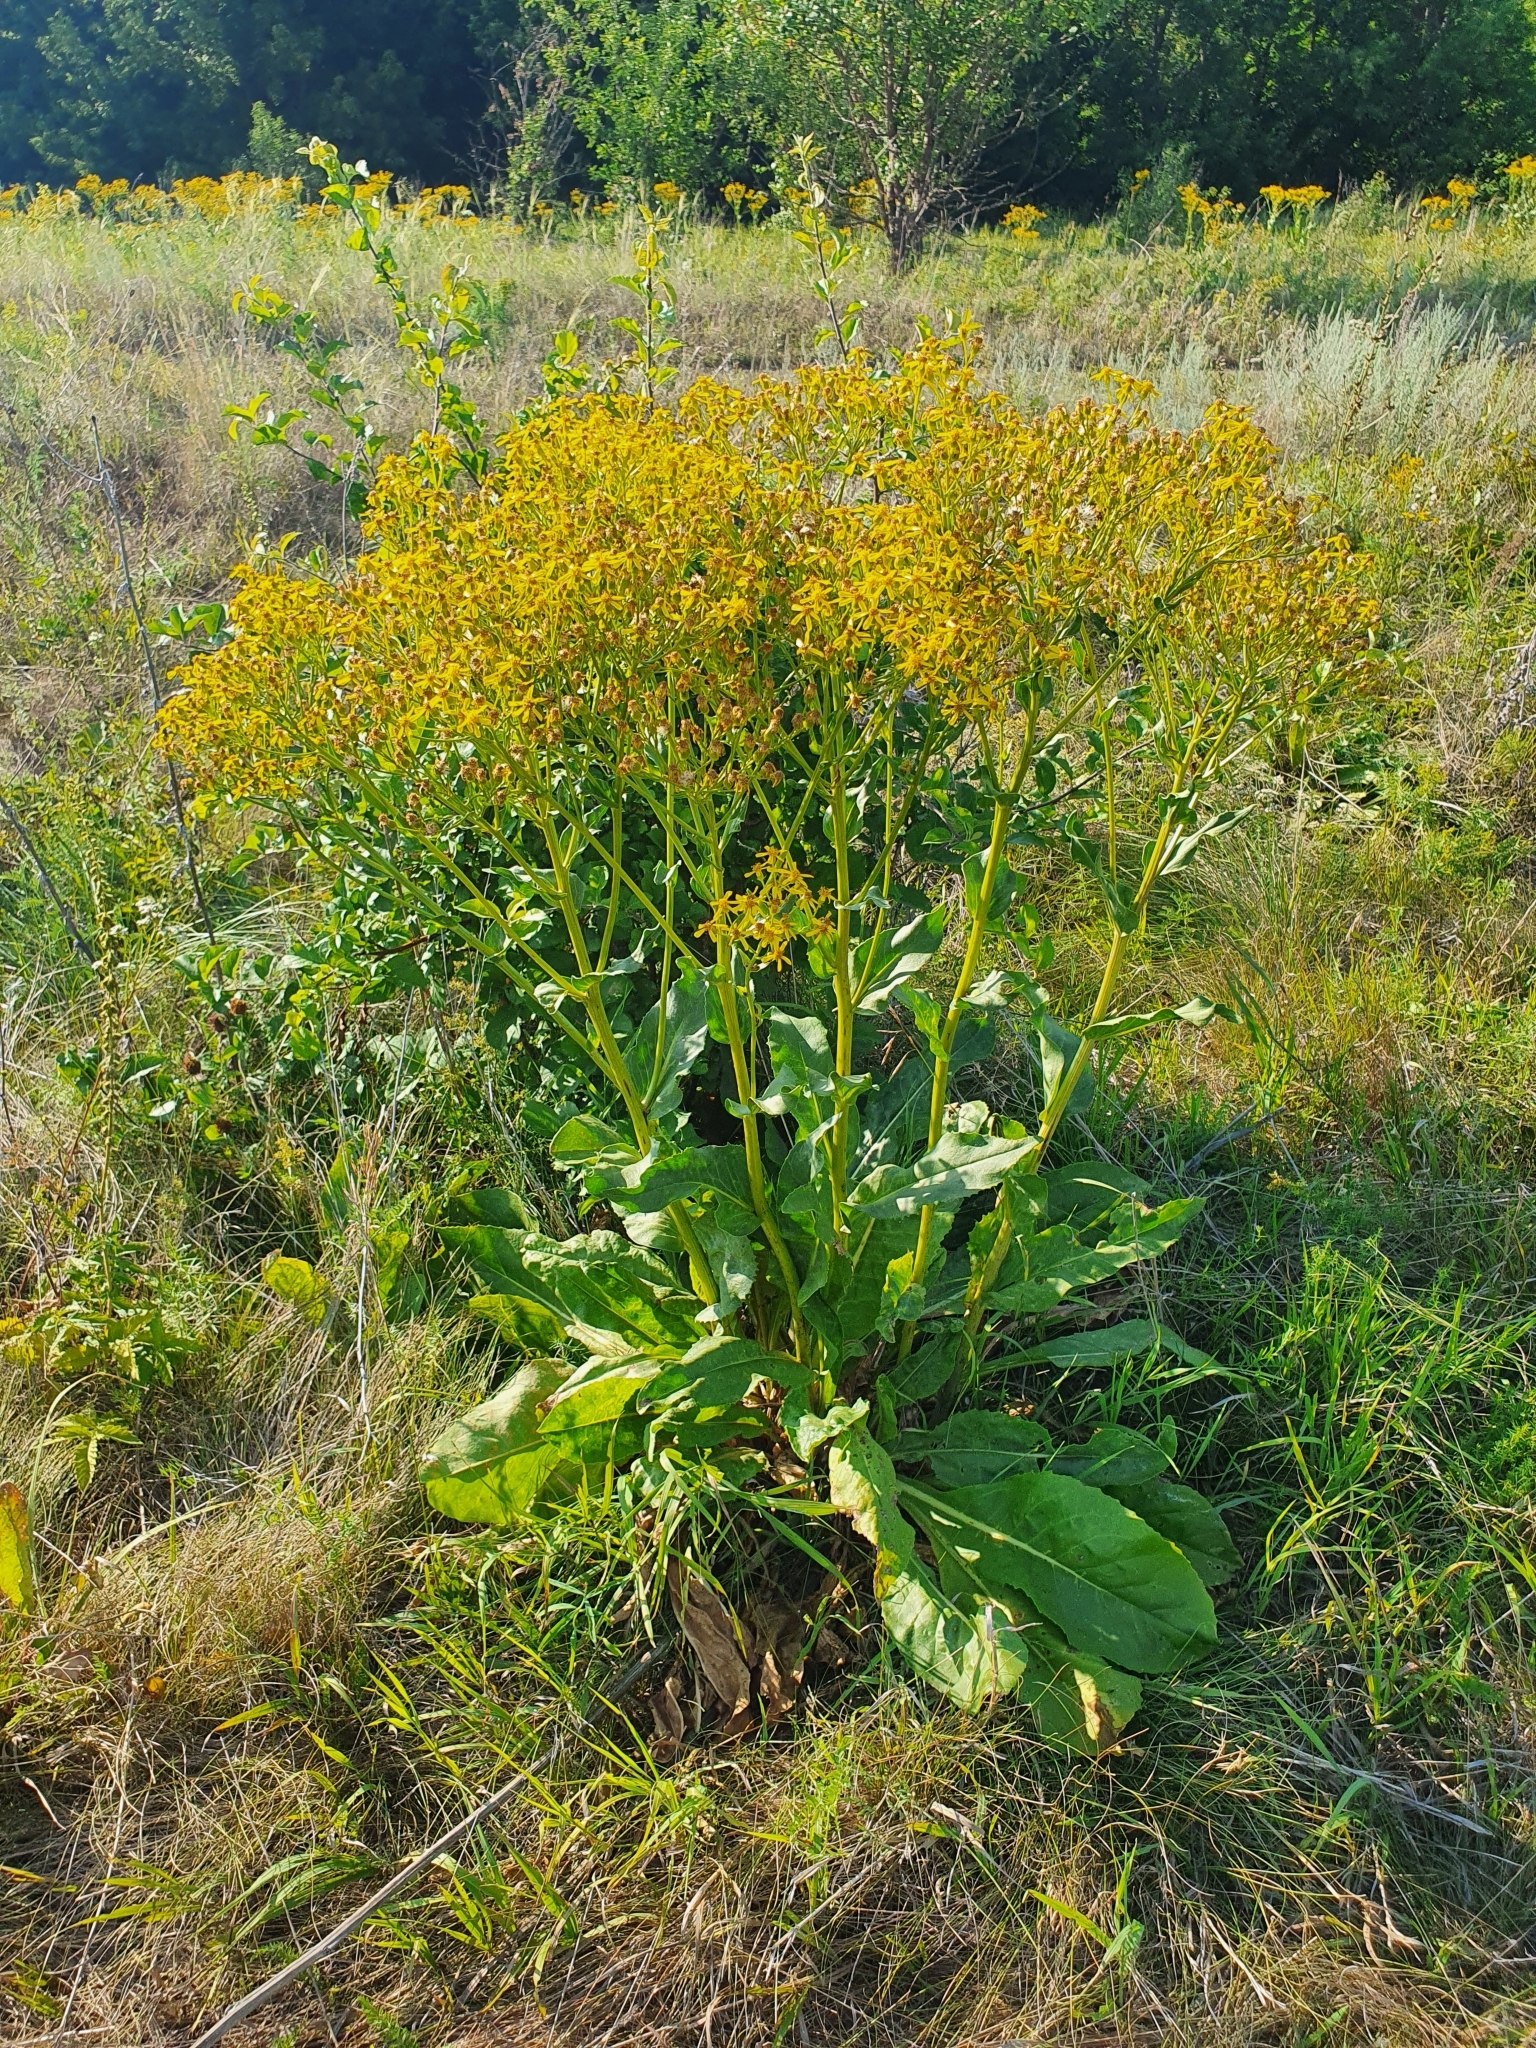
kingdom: Plantae
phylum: Tracheophyta
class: Magnoliopsida
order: Asterales
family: Asteraceae
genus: Senecio
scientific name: Senecio doria
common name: Golden ragwort
